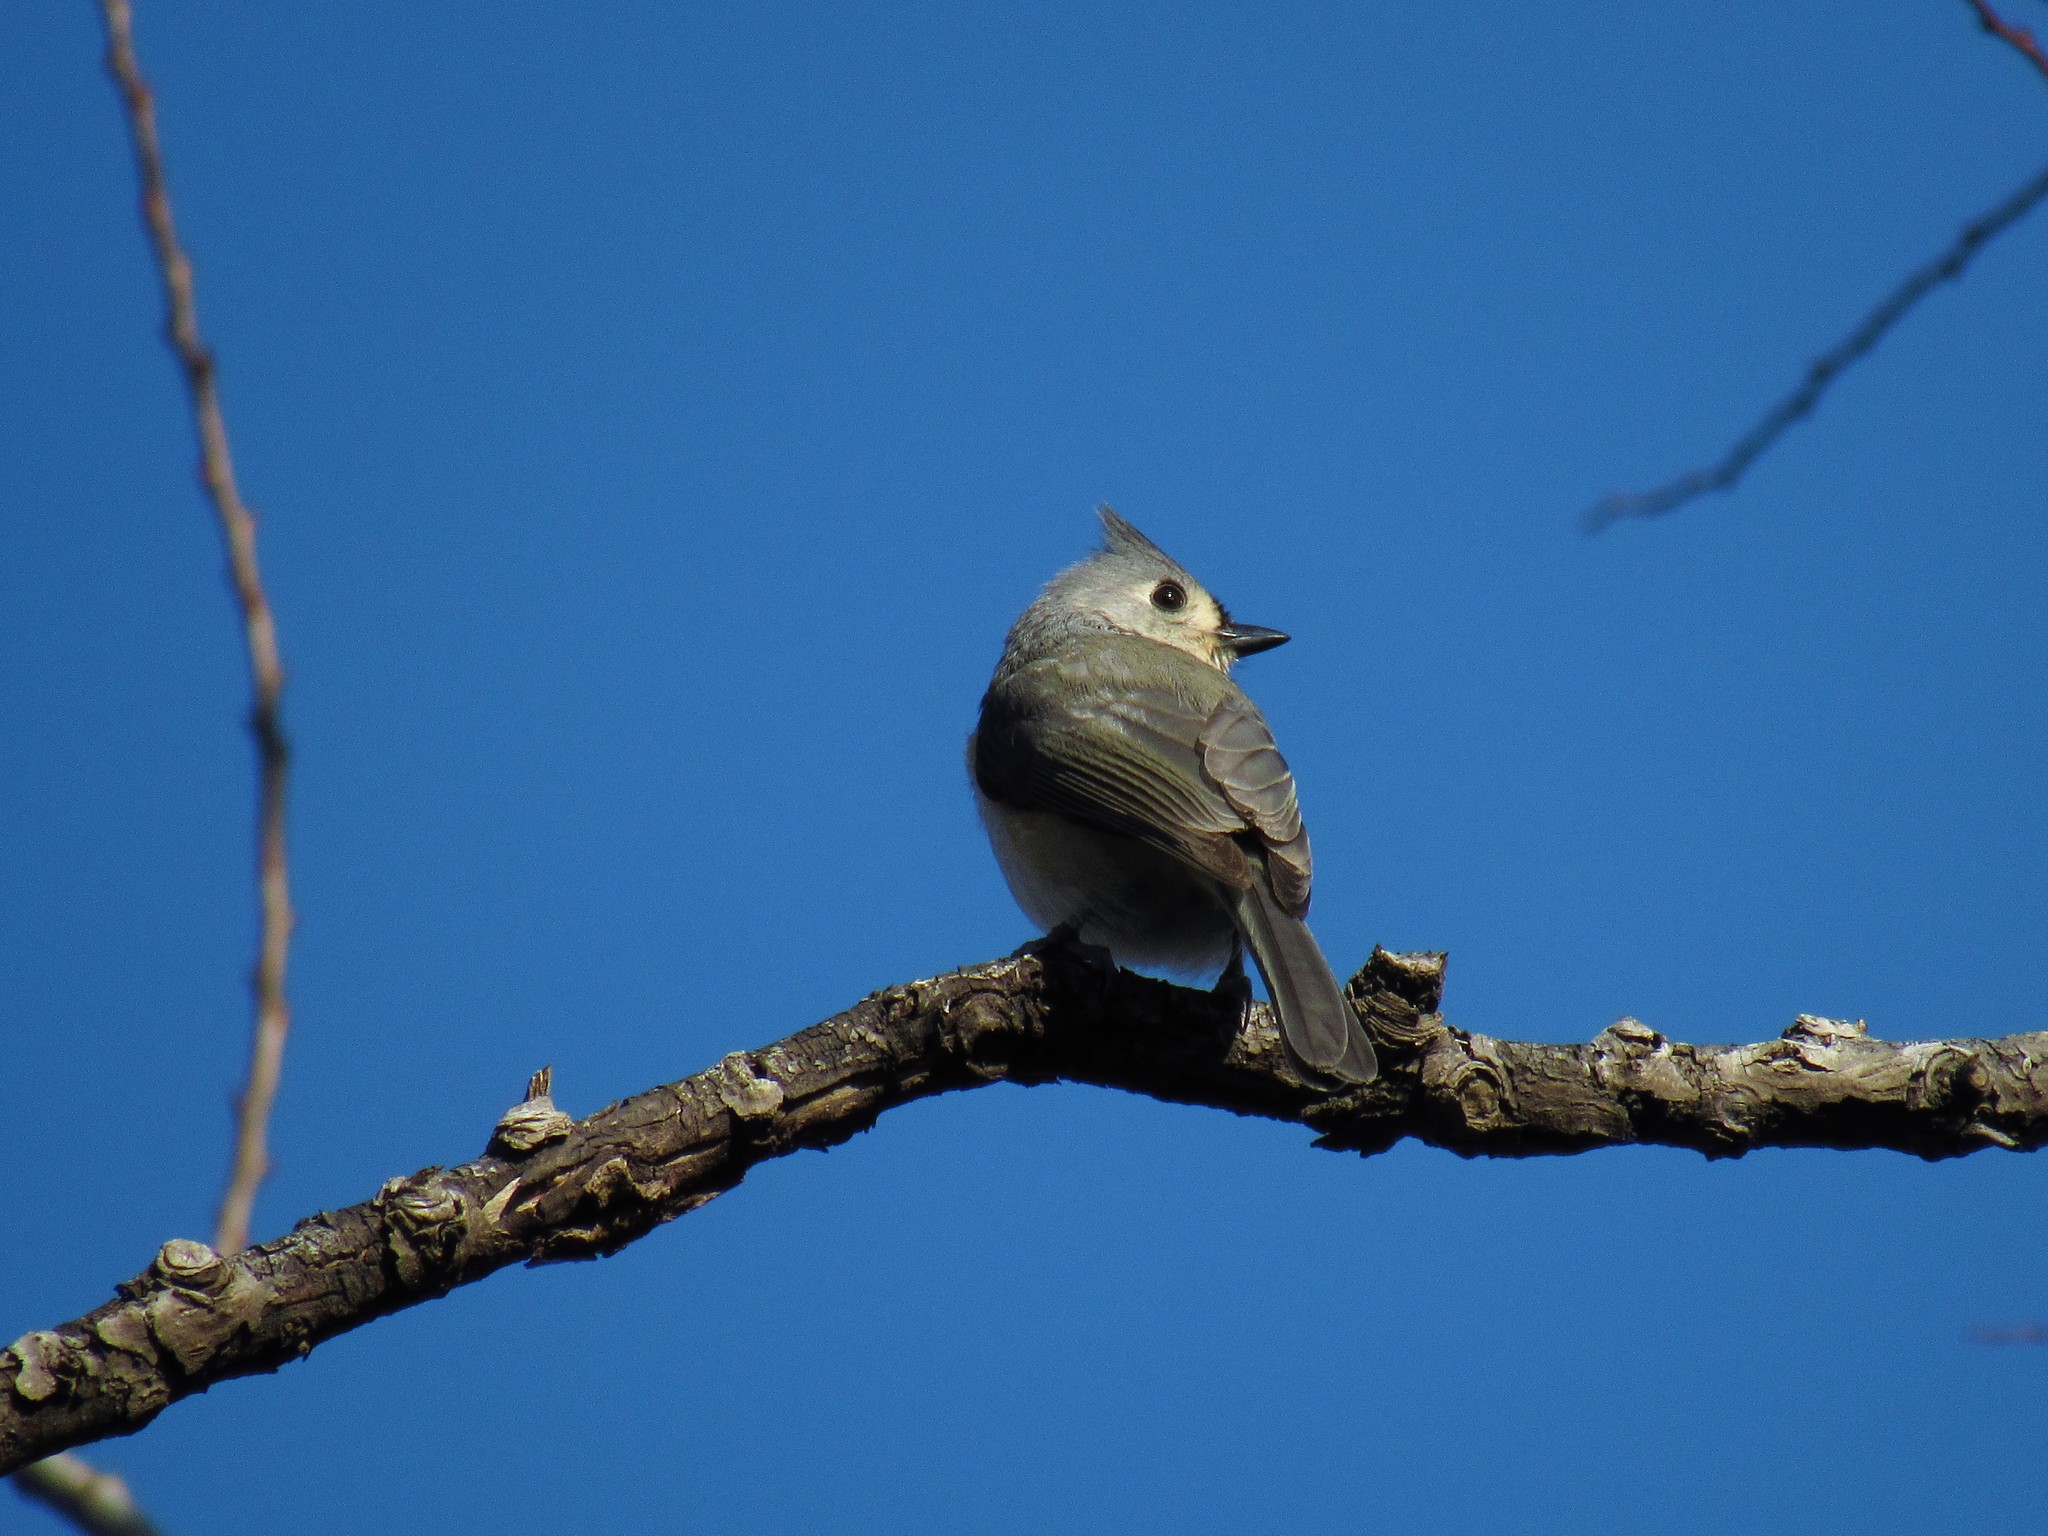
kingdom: Animalia
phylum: Chordata
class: Aves
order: Passeriformes
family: Paridae
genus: Baeolophus
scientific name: Baeolophus bicolor
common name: Tufted titmouse
